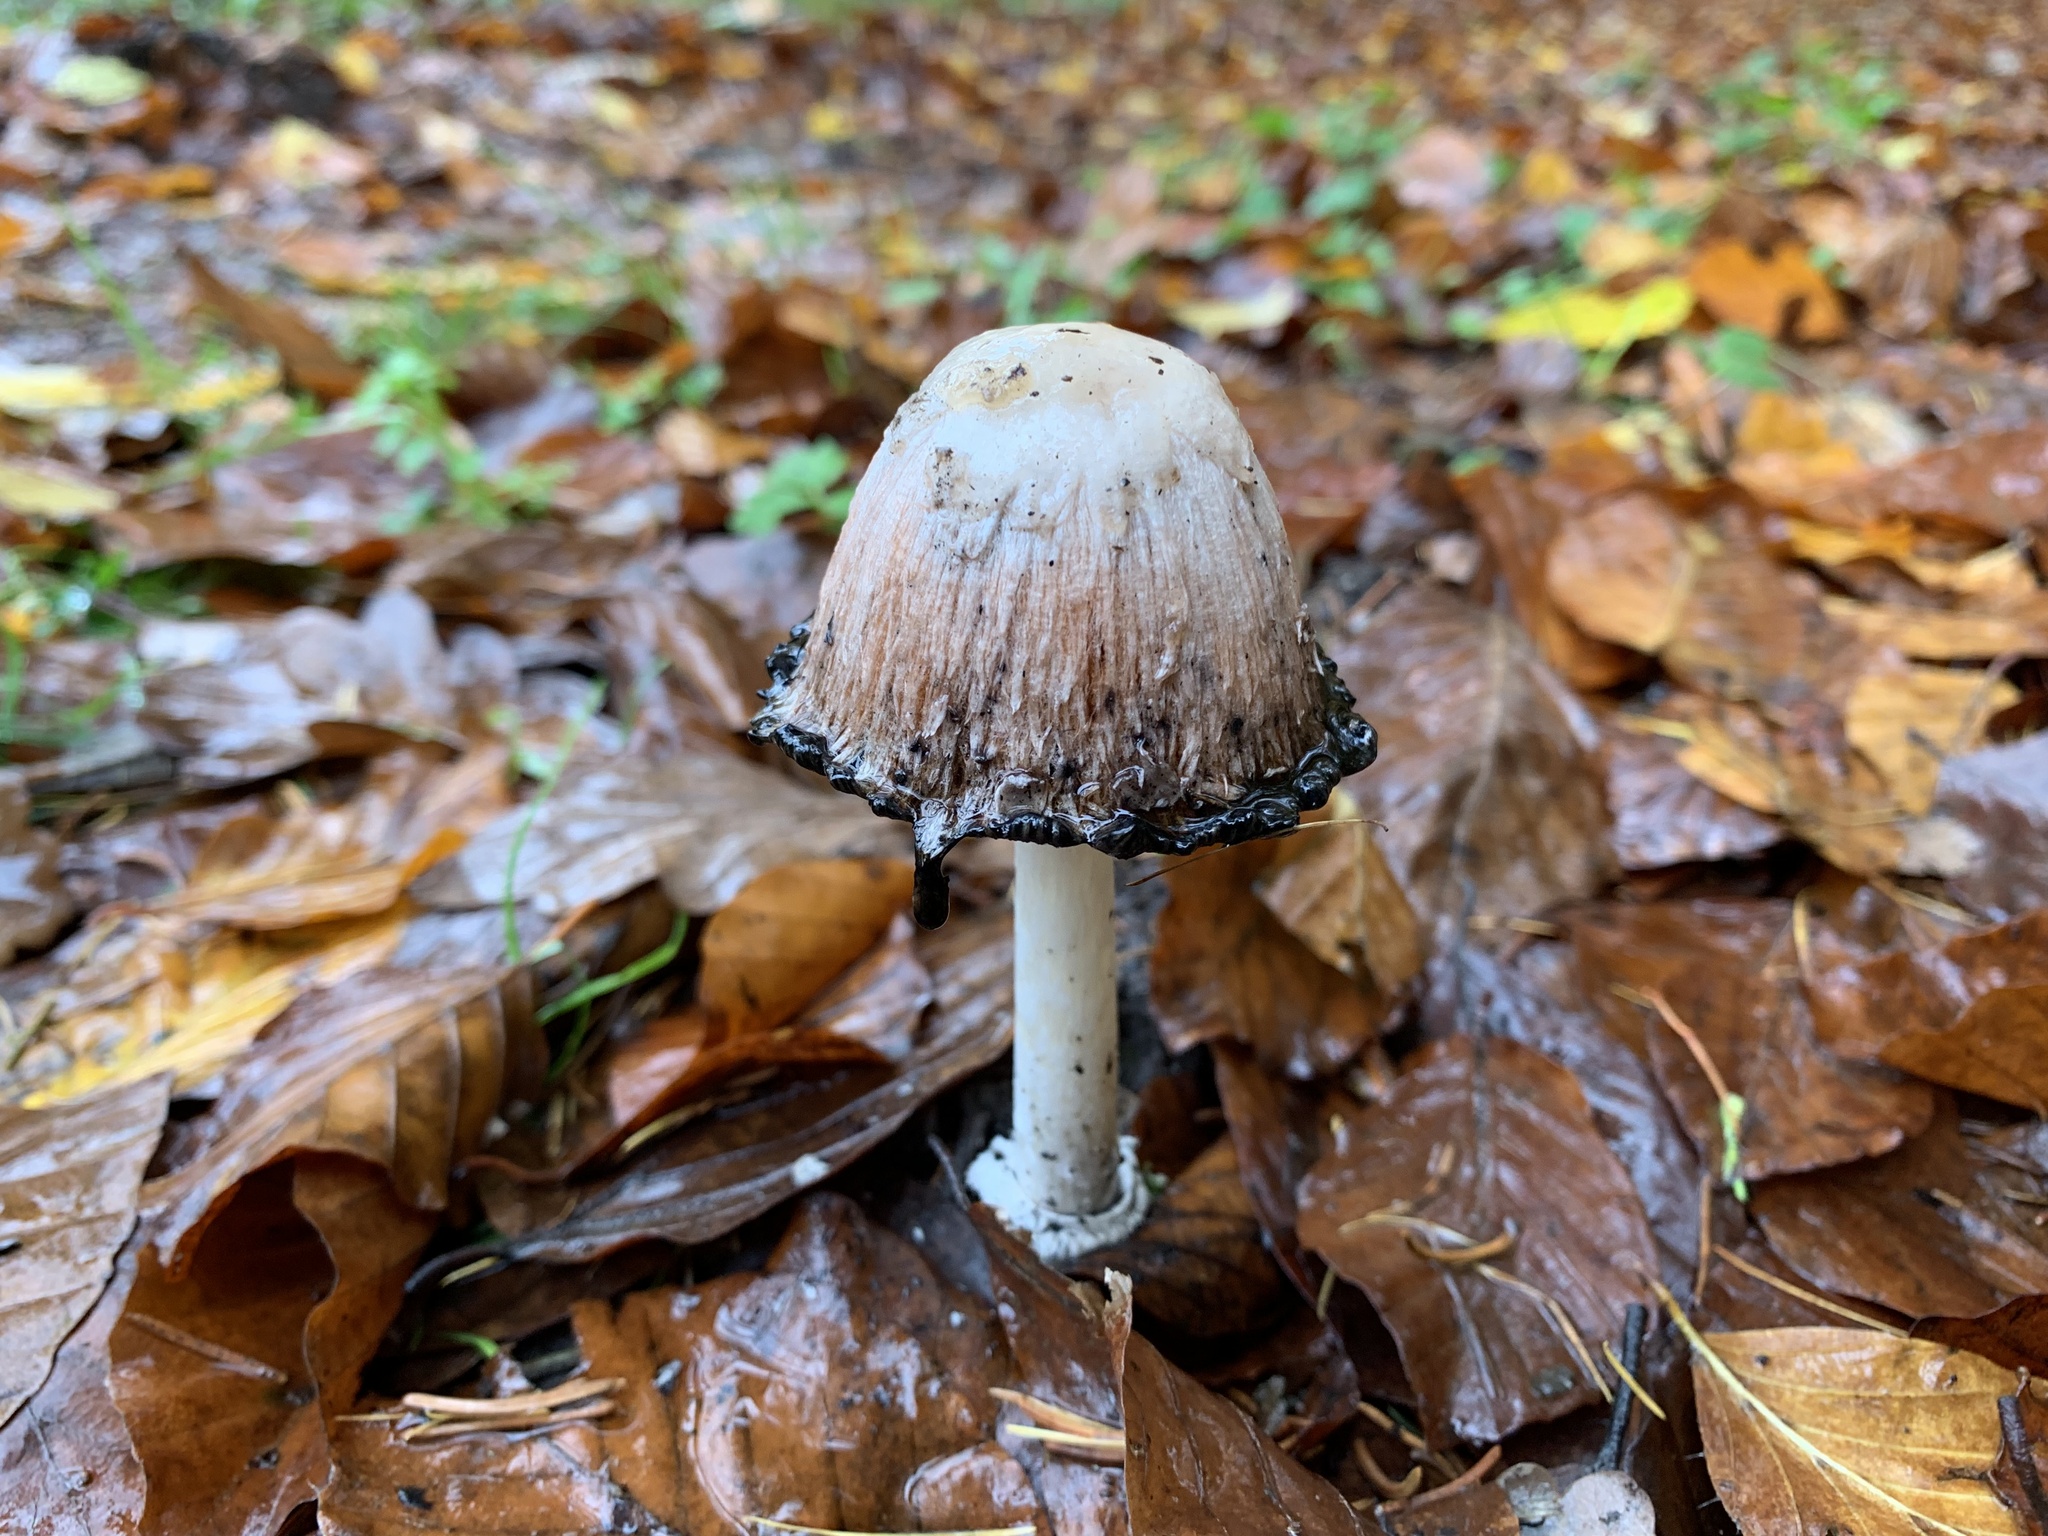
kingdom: Fungi
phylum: Basidiomycota
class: Agaricomycetes
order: Agaricales
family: Agaricaceae
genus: Coprinus
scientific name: Coprinus comatus
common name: Lawyer's wig
